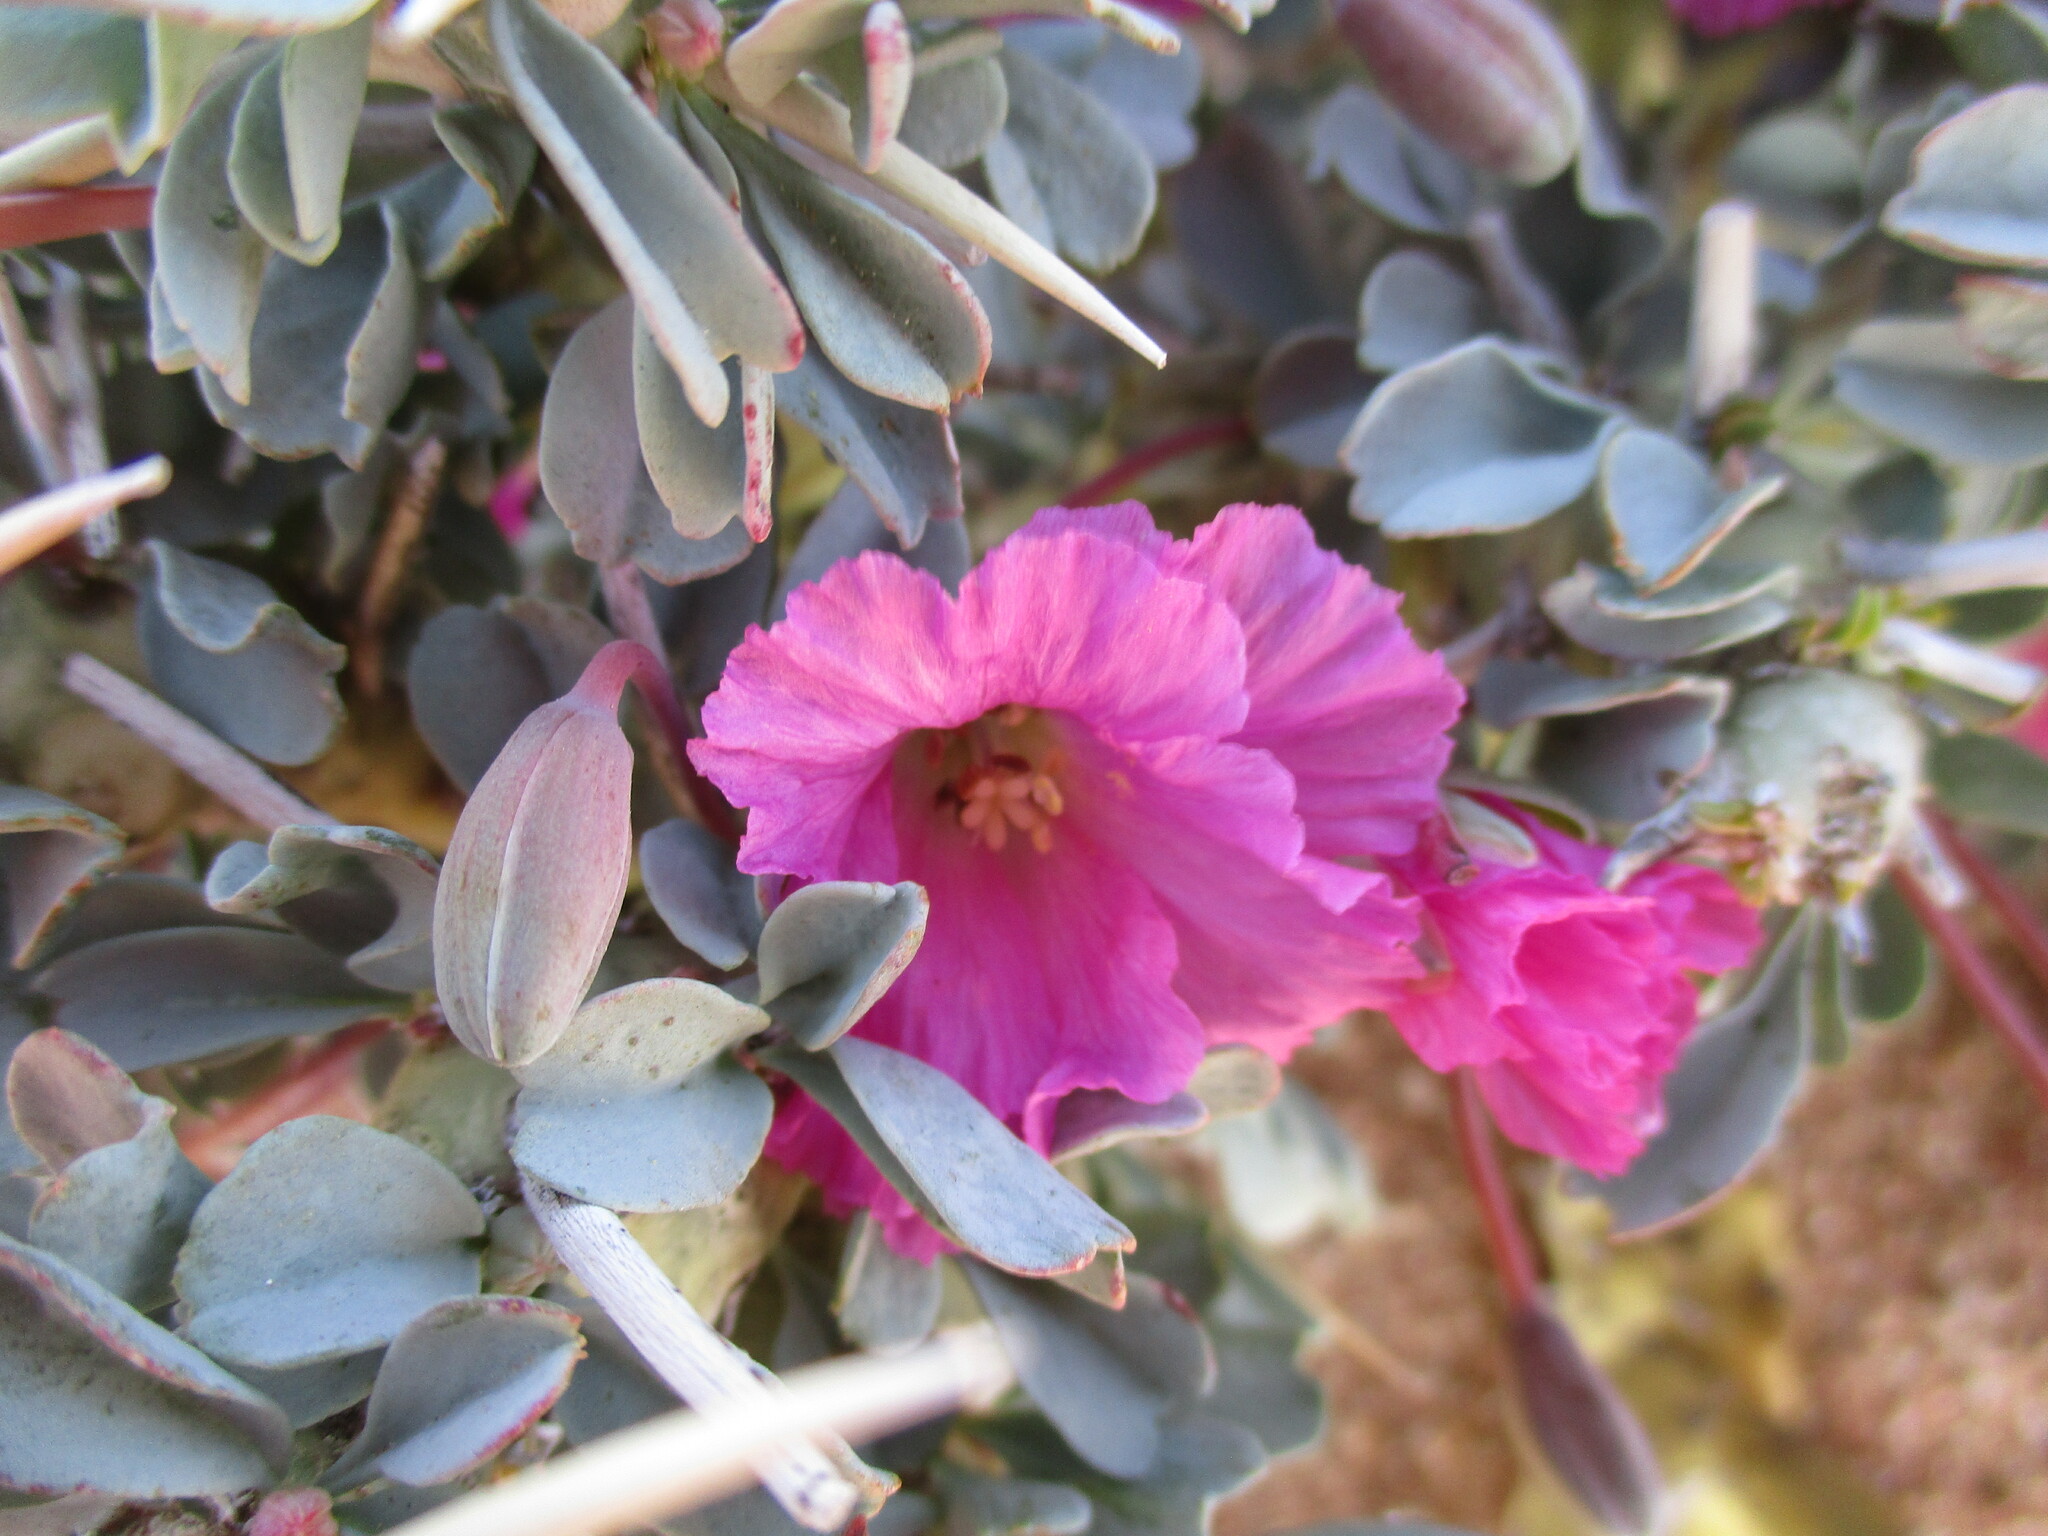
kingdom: Plantae
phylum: Tracheophyta
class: Magnoliopsida
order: Geraniales
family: Geraniaceae
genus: Monsonia
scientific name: Monsonia patersonii
